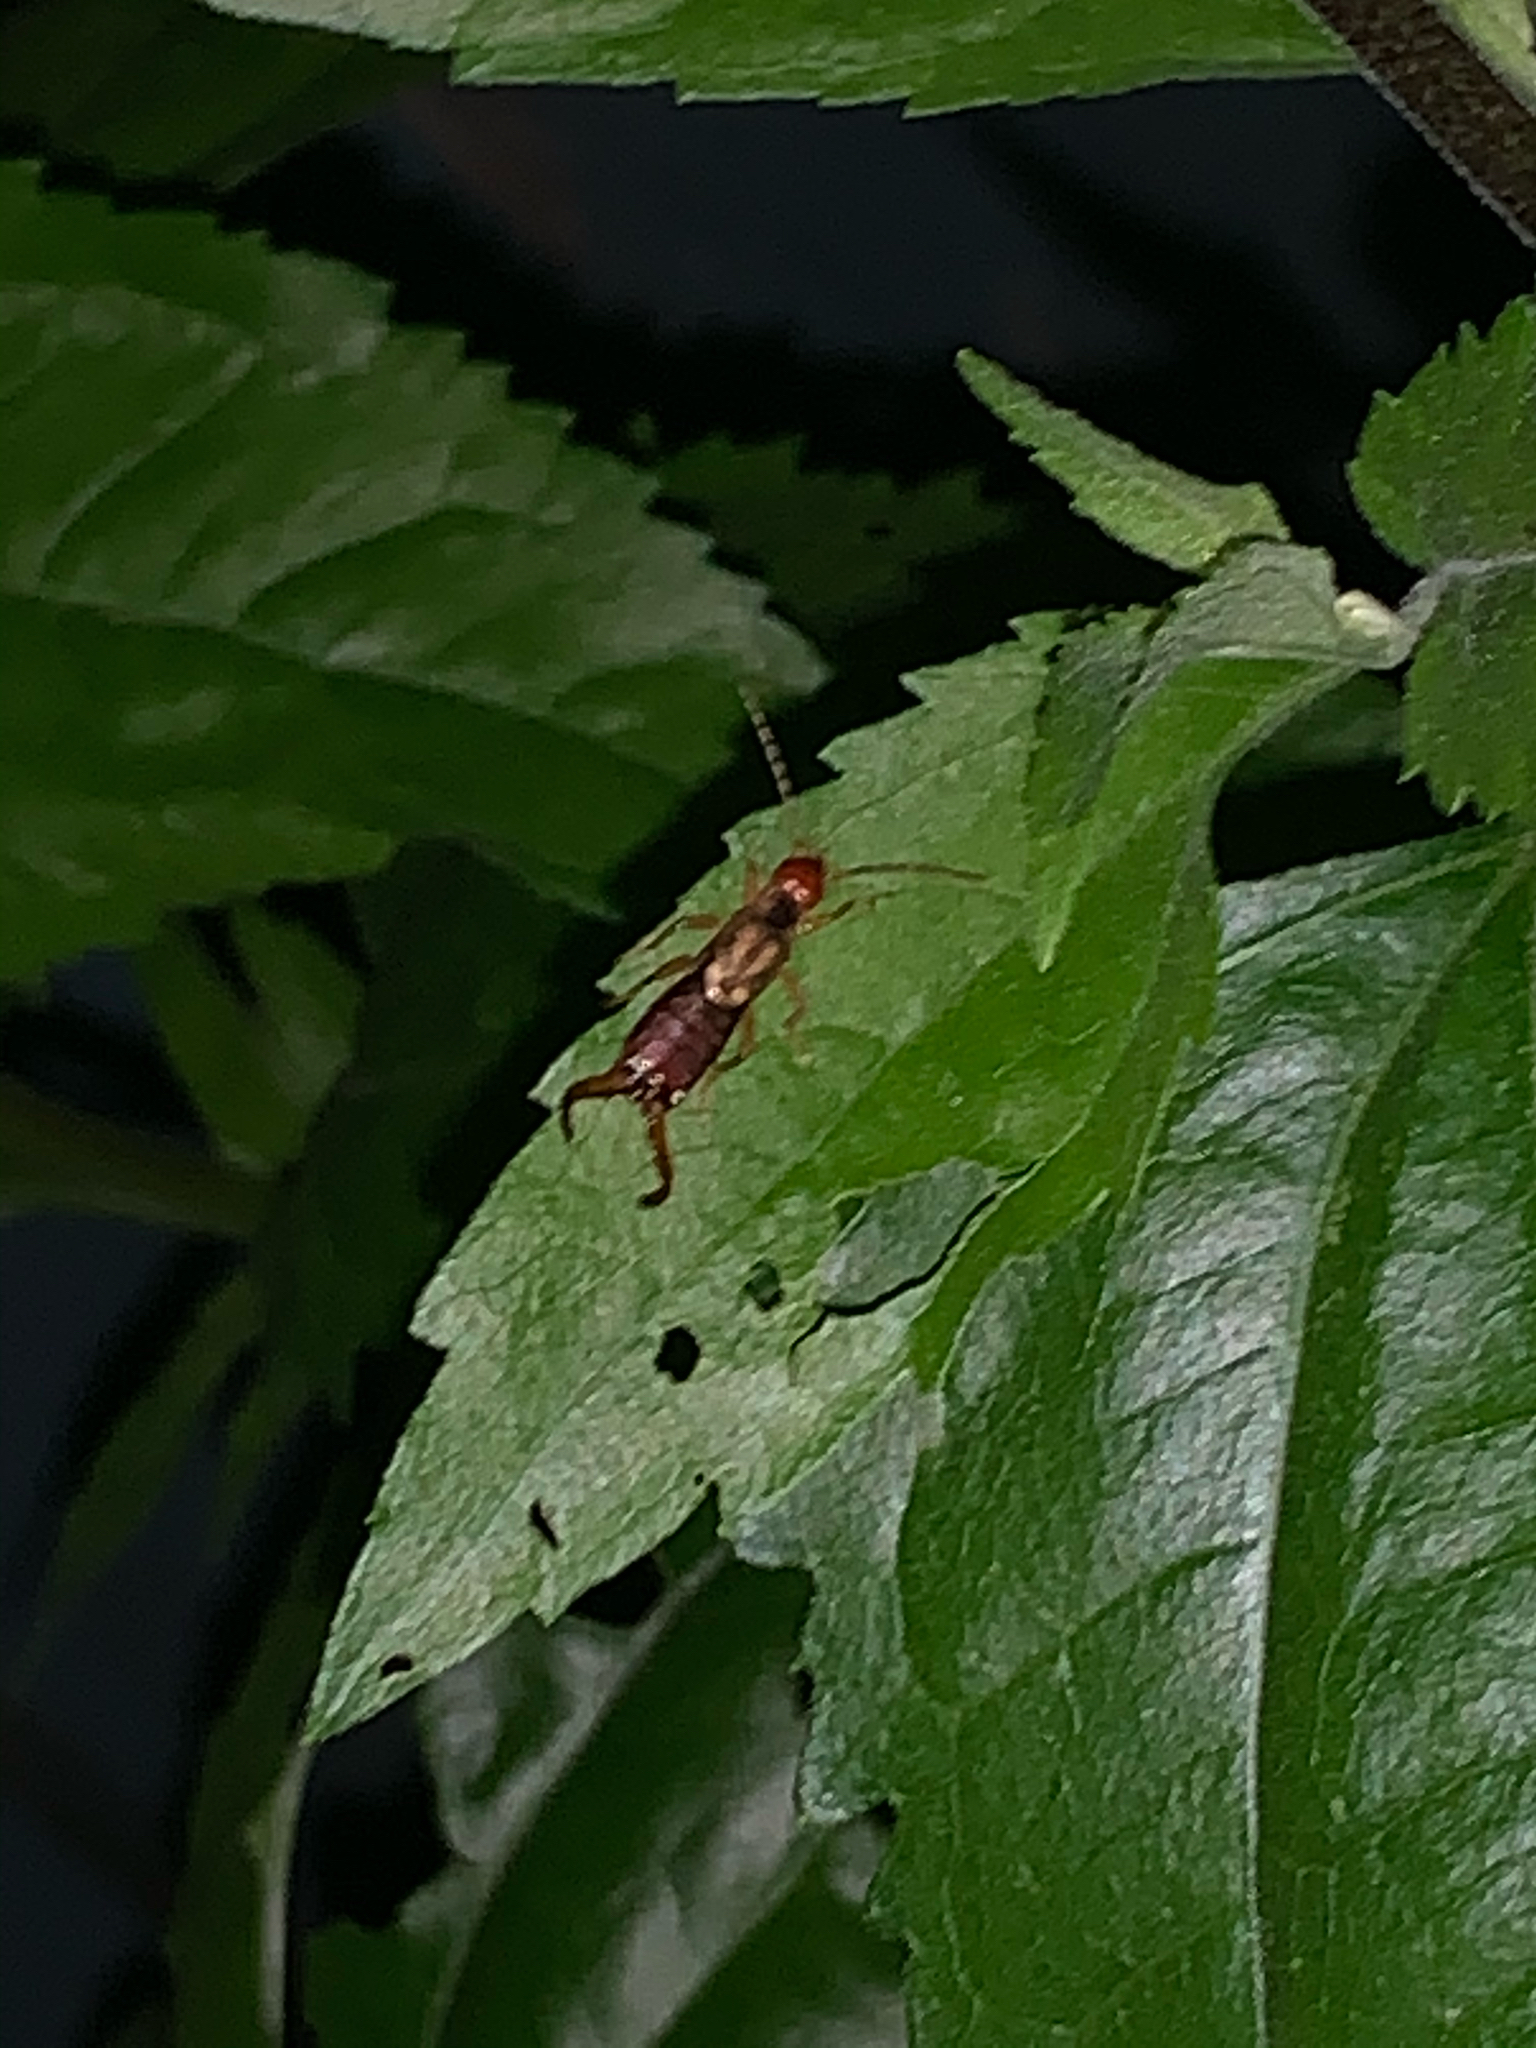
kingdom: Animalia
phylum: Arthropoda
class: Insecta
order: Dermaptera
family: Forficulidae
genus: Forficula
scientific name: Forficula
